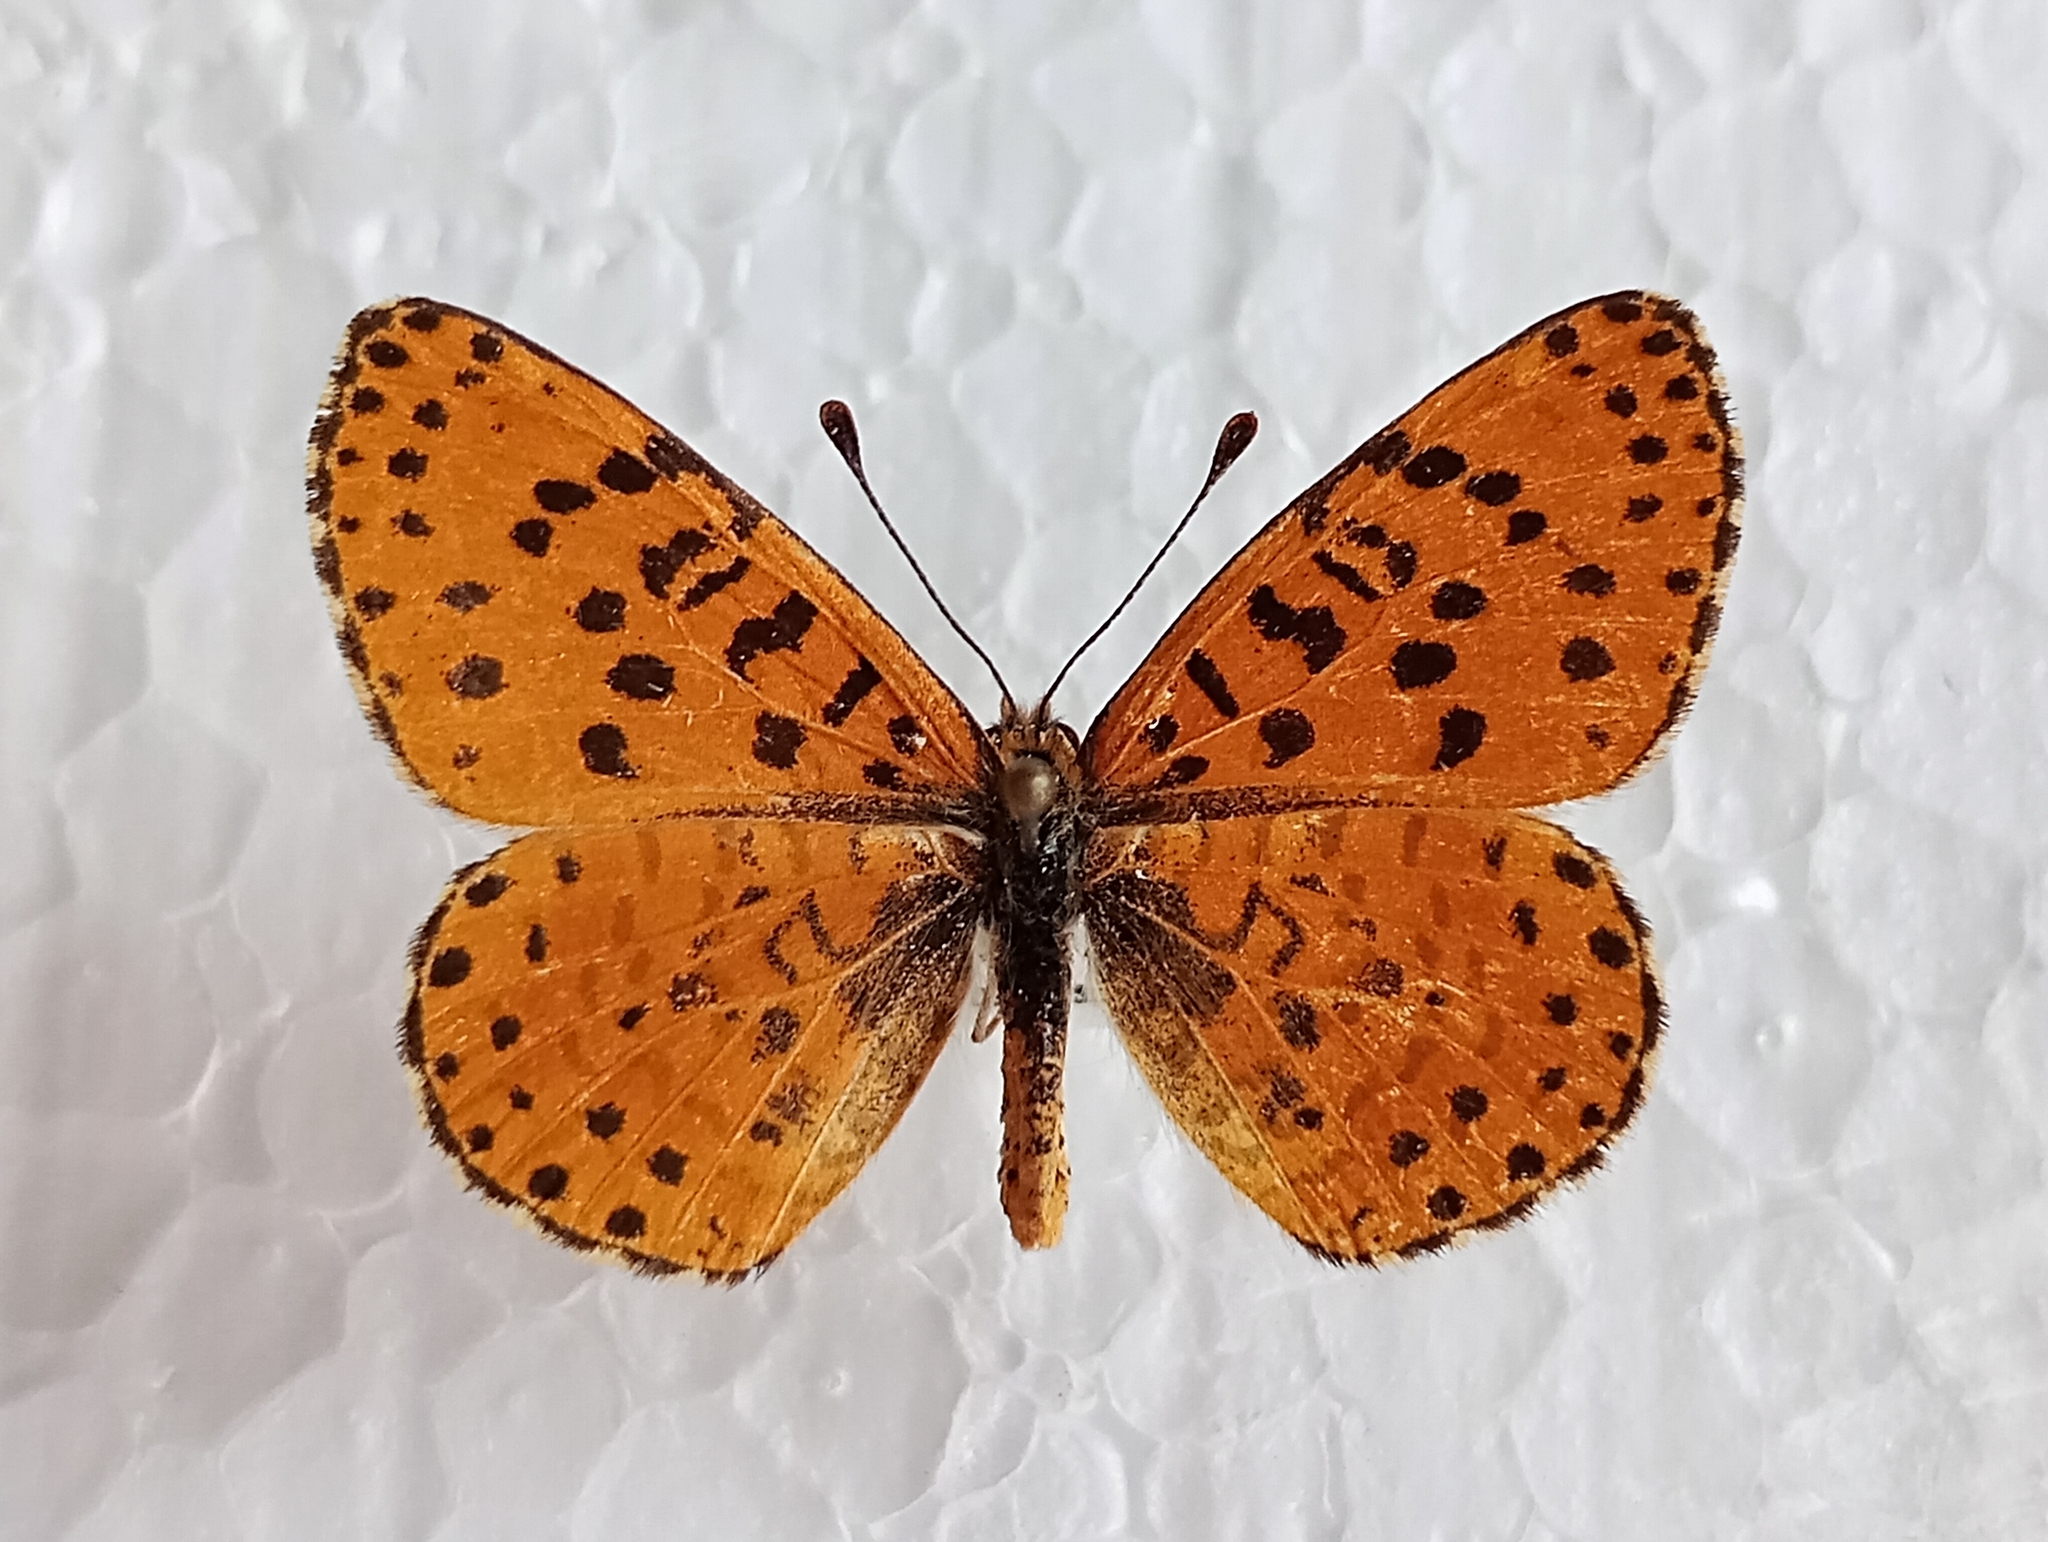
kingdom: Animalia
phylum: Arthropoda
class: Insecta
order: Lepidoptera
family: Nymphalidae
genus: Melitaea
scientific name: Melitaea persea
